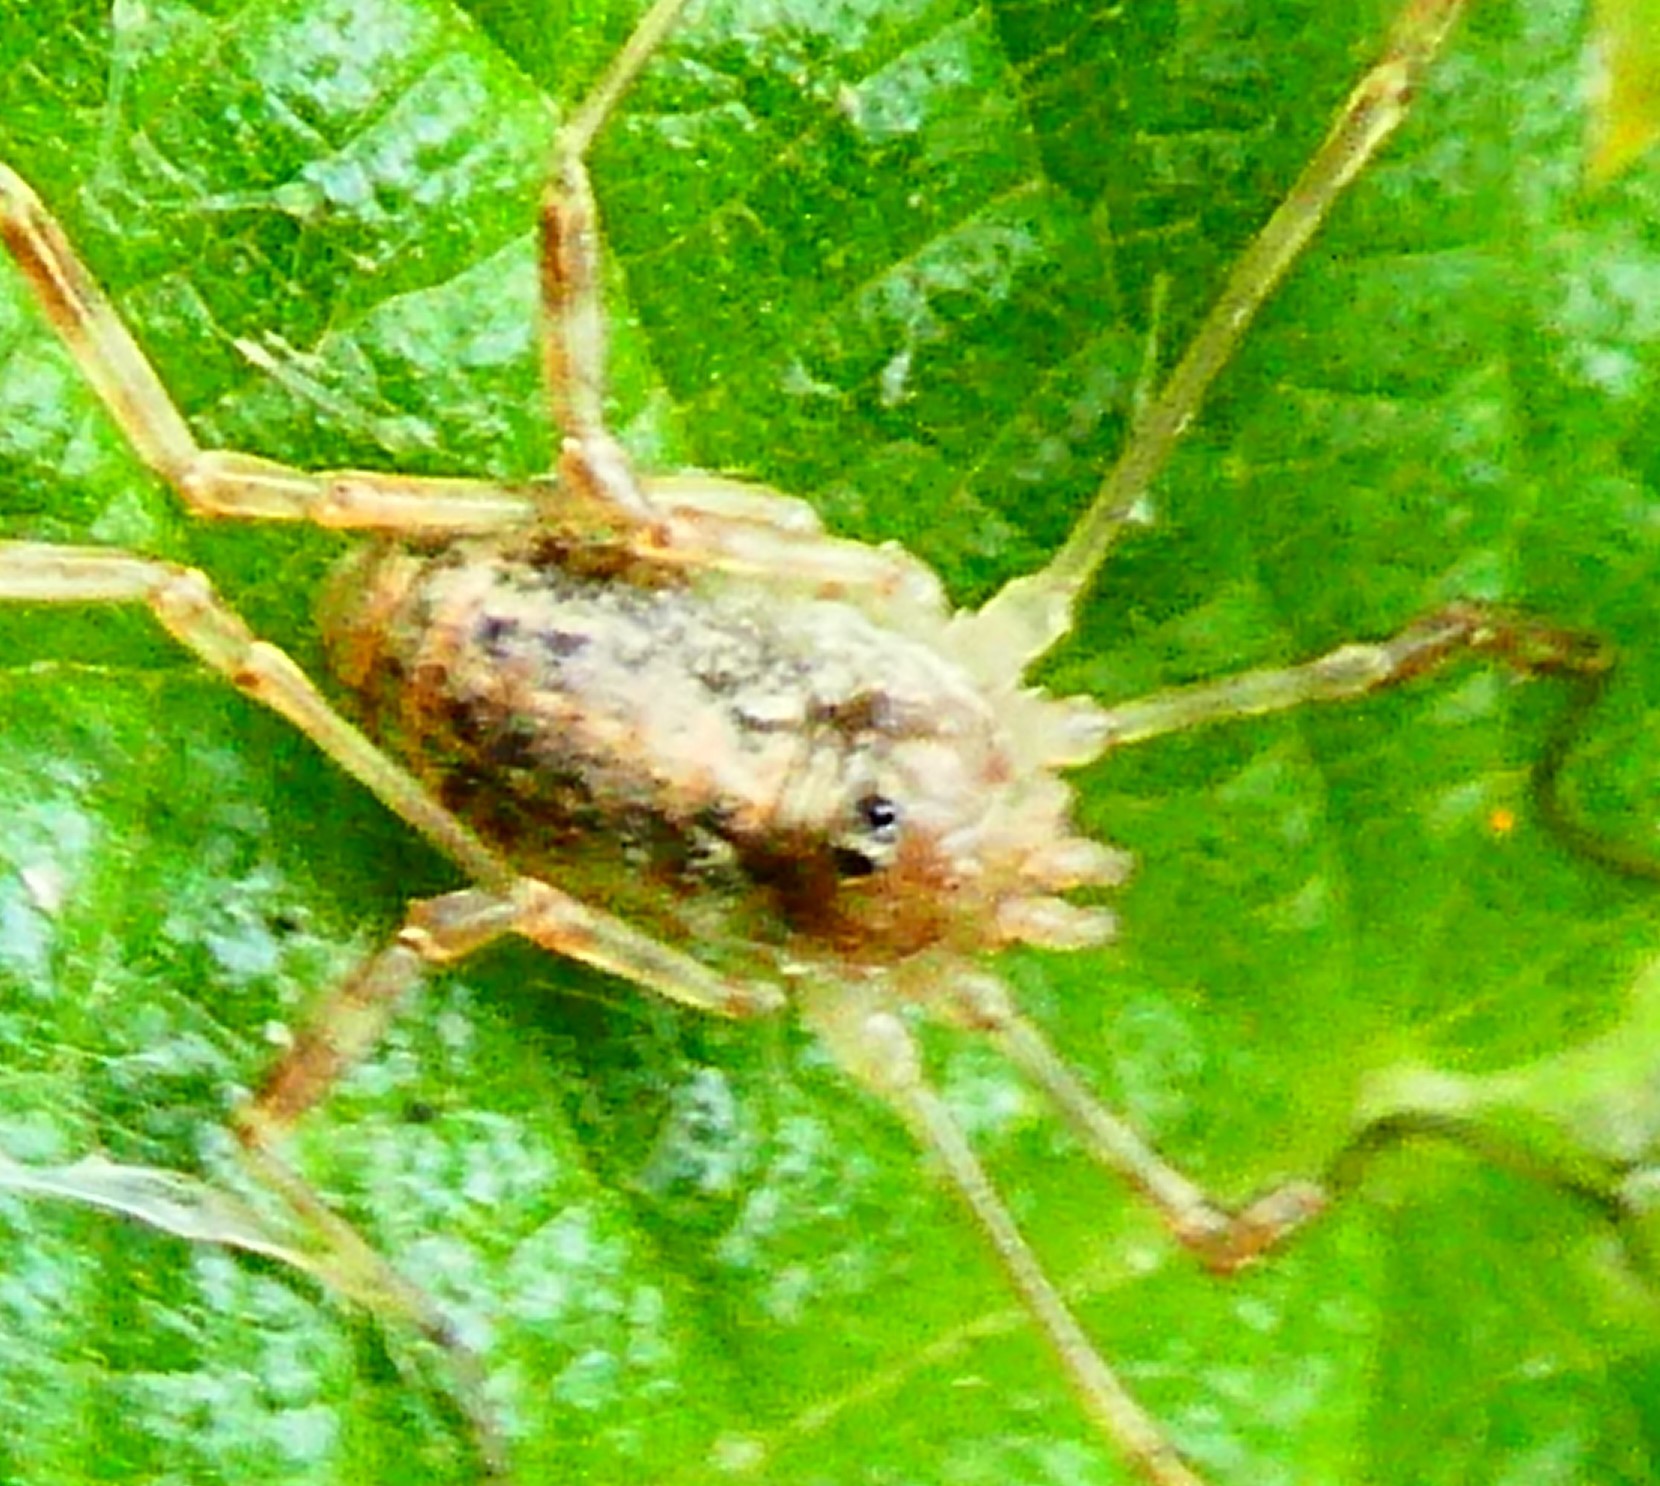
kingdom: Animalia
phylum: Arthropoda
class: Arachnida
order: Opiliones
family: Phalangiidae
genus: Paroligolophus
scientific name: Paroligolophus agrestis
